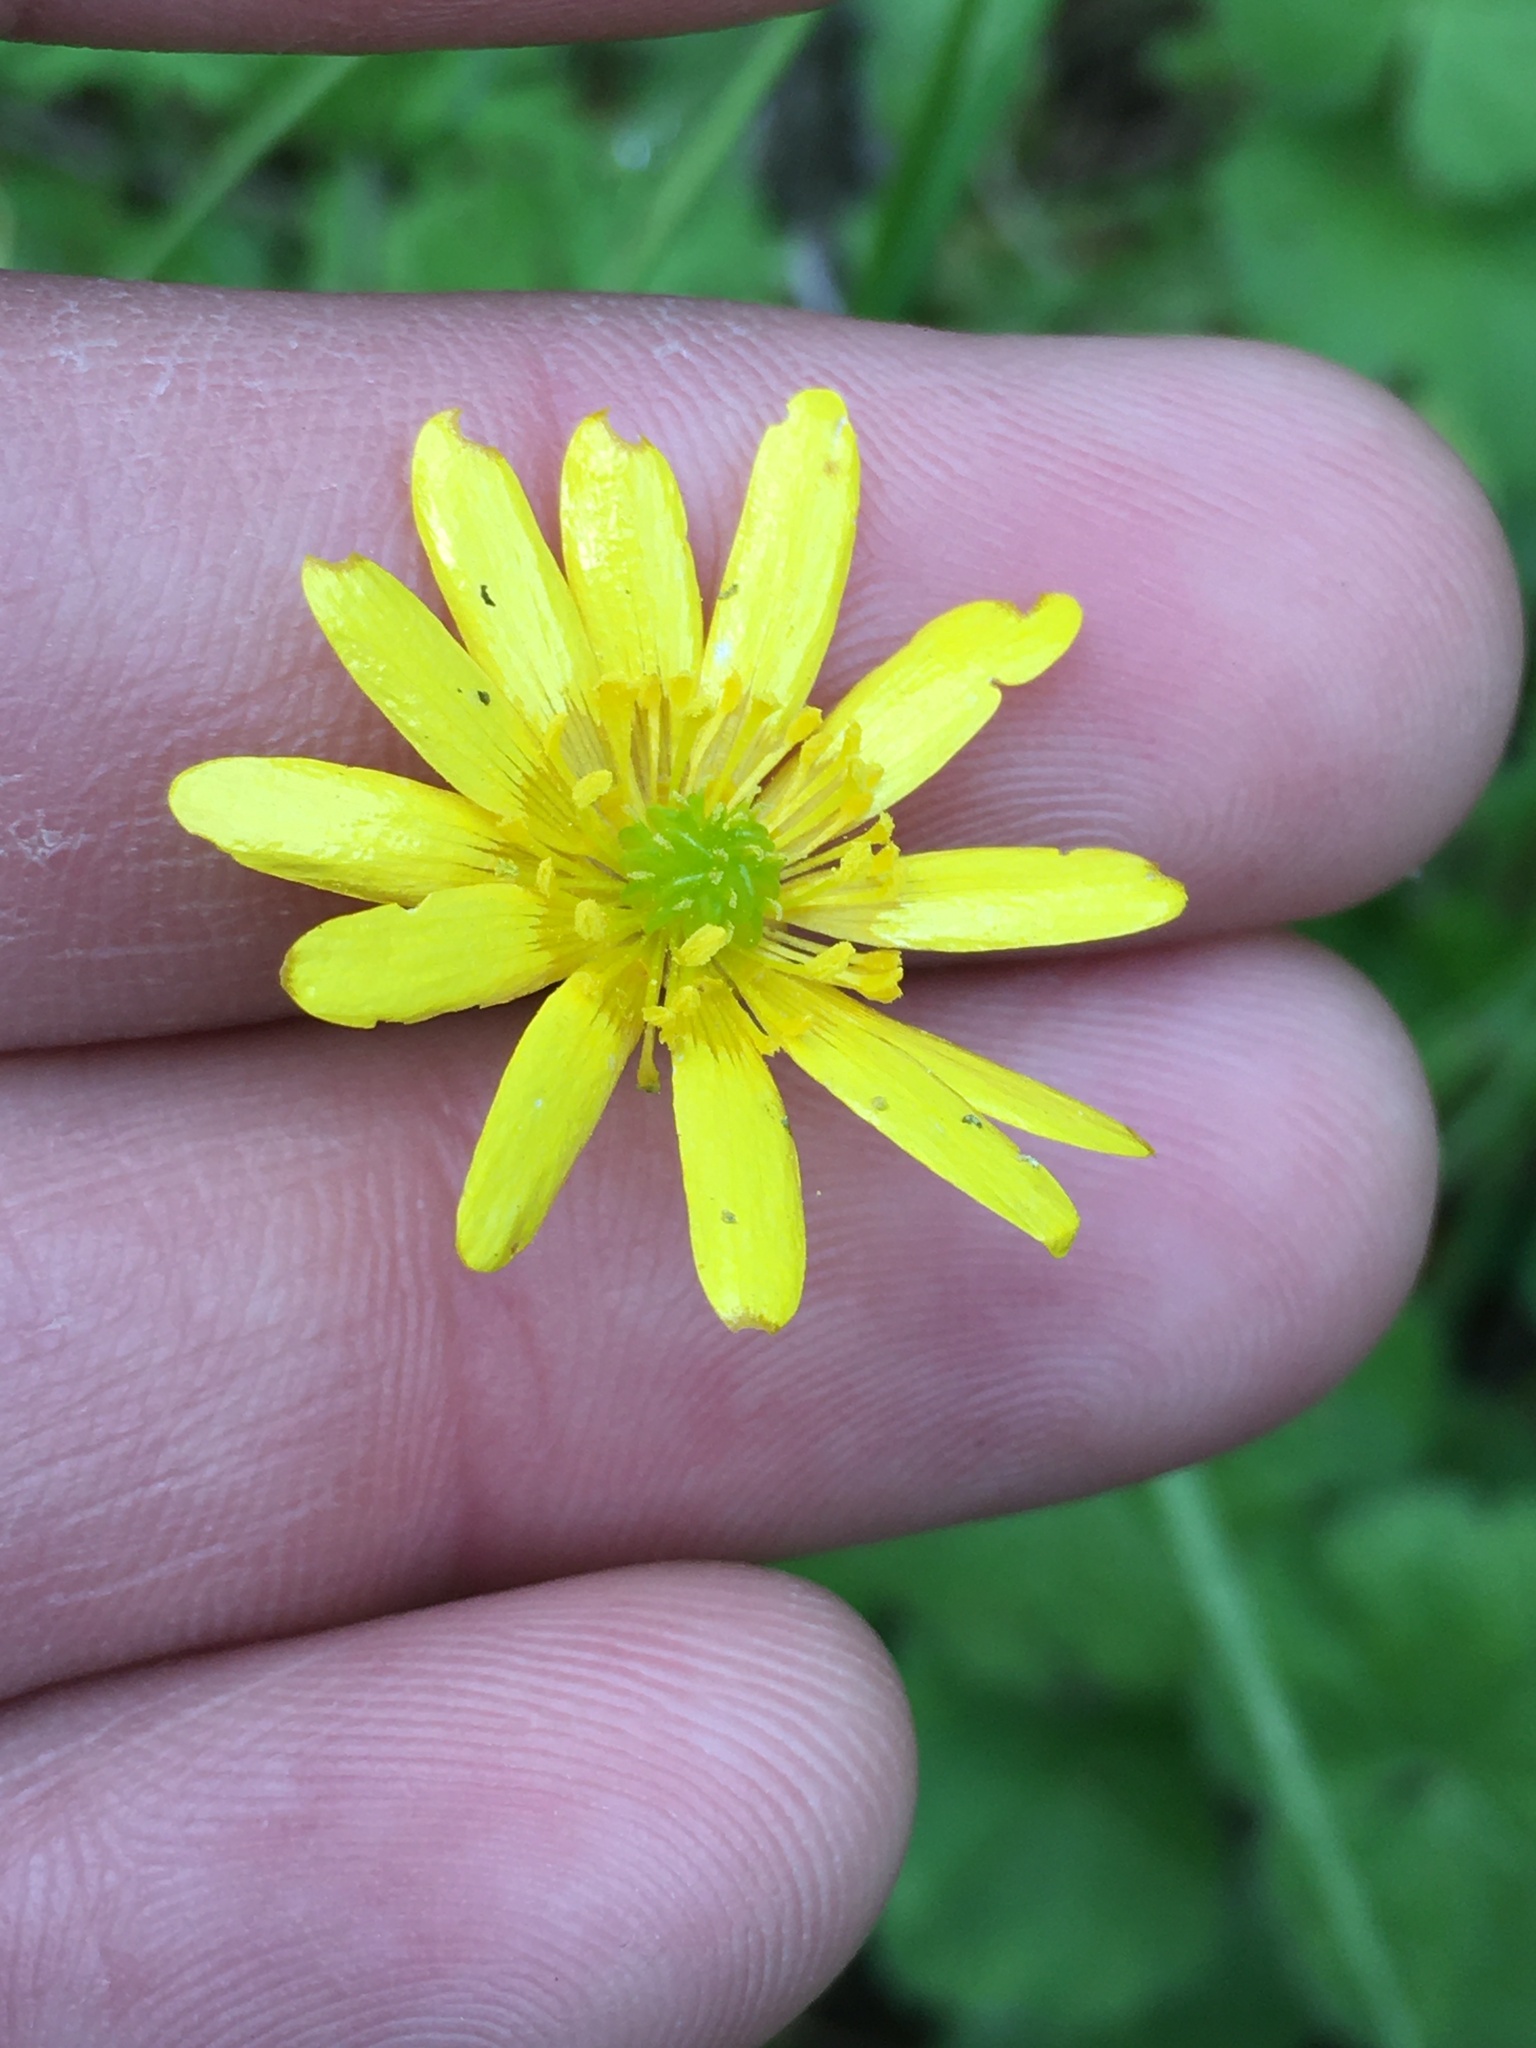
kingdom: Plantae
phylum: Tracheophyta
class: Magnoliopsida
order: Ranunculales
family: Ranunculaceae
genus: Ranunculus
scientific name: Ranunculus californicus
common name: California buttercup
